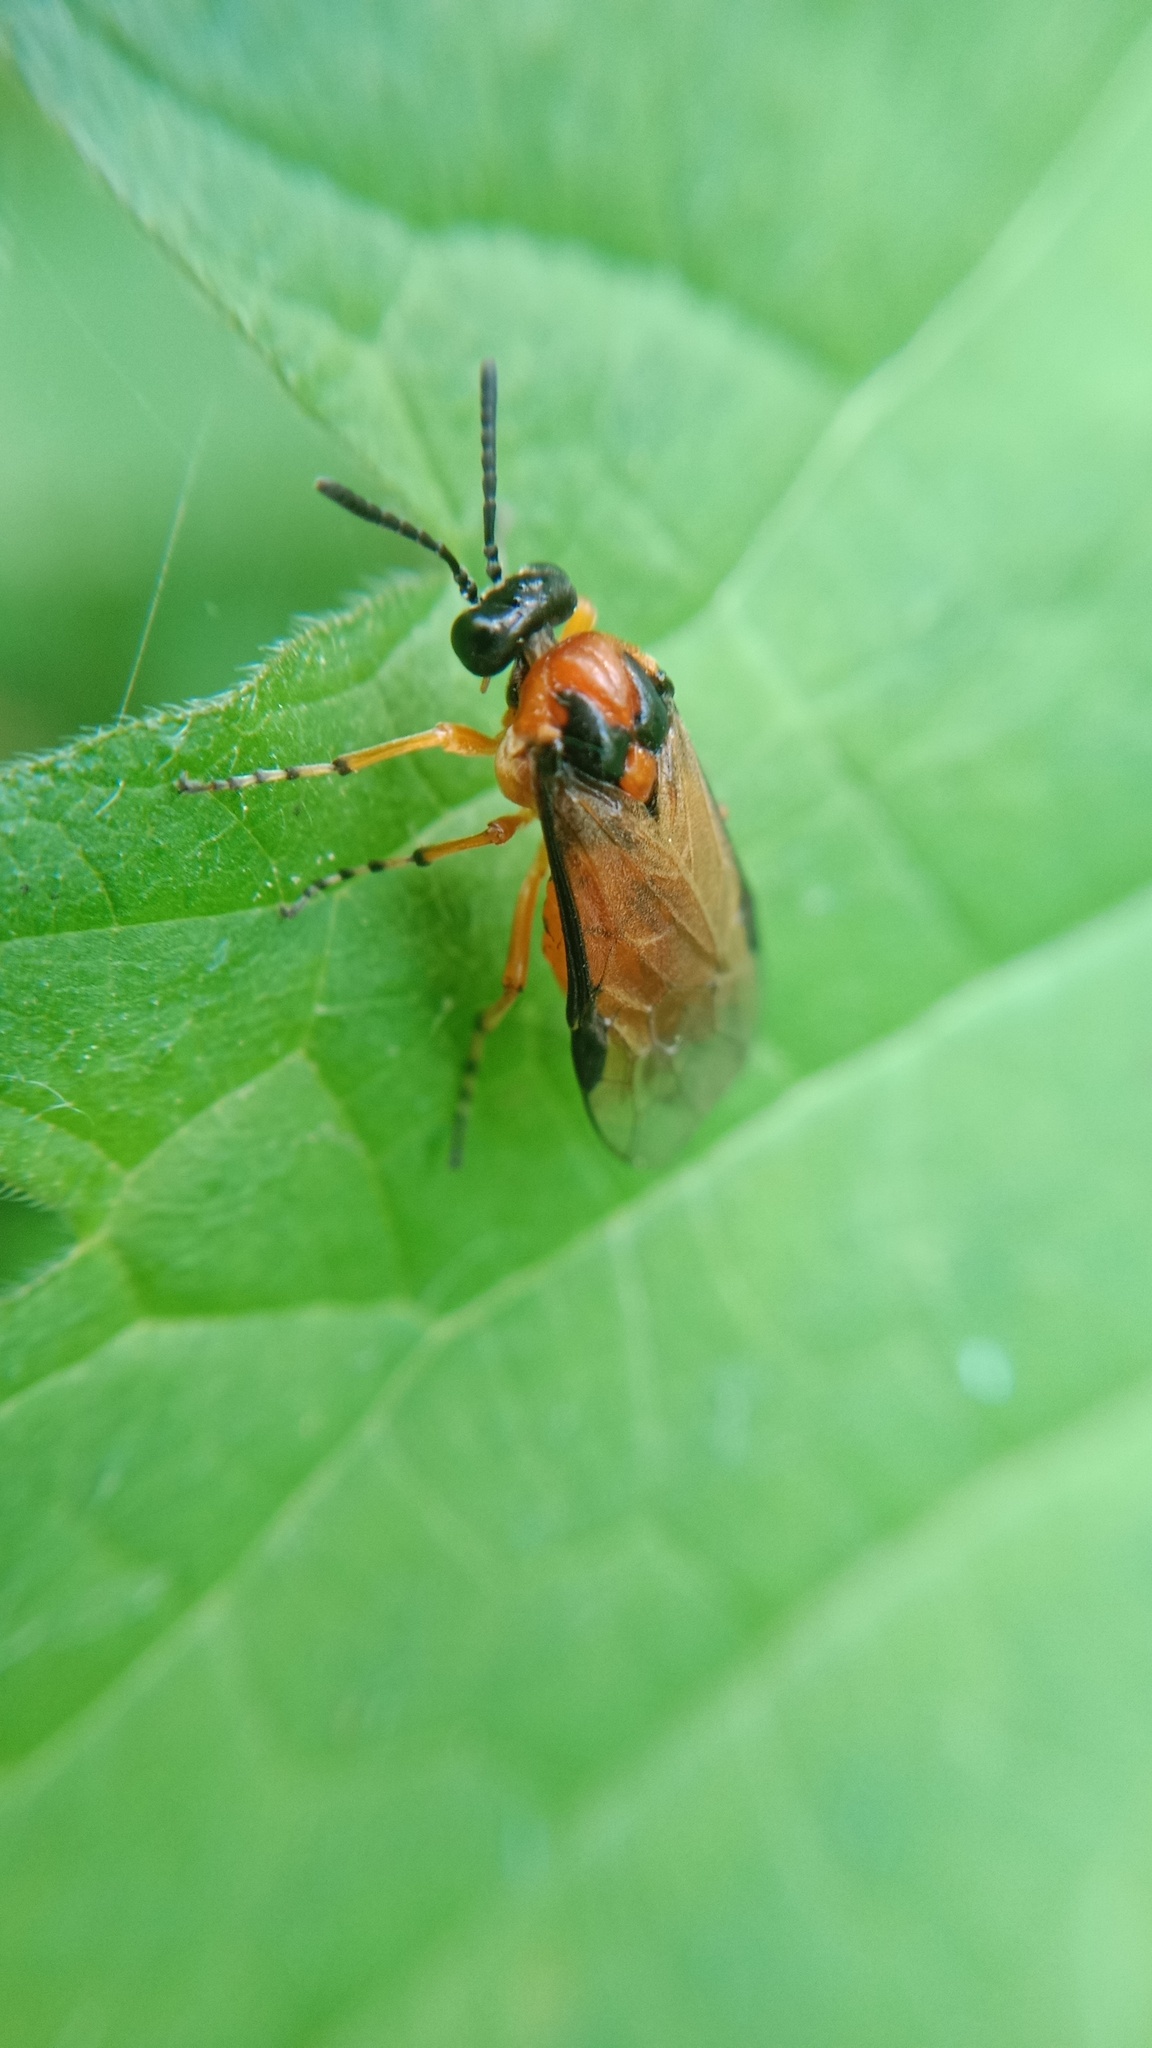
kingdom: Animalia
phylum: Arthropoda
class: Insecta
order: Hymenoptera
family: Tenthredinidae
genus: Athalia
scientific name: Athalia rosae
